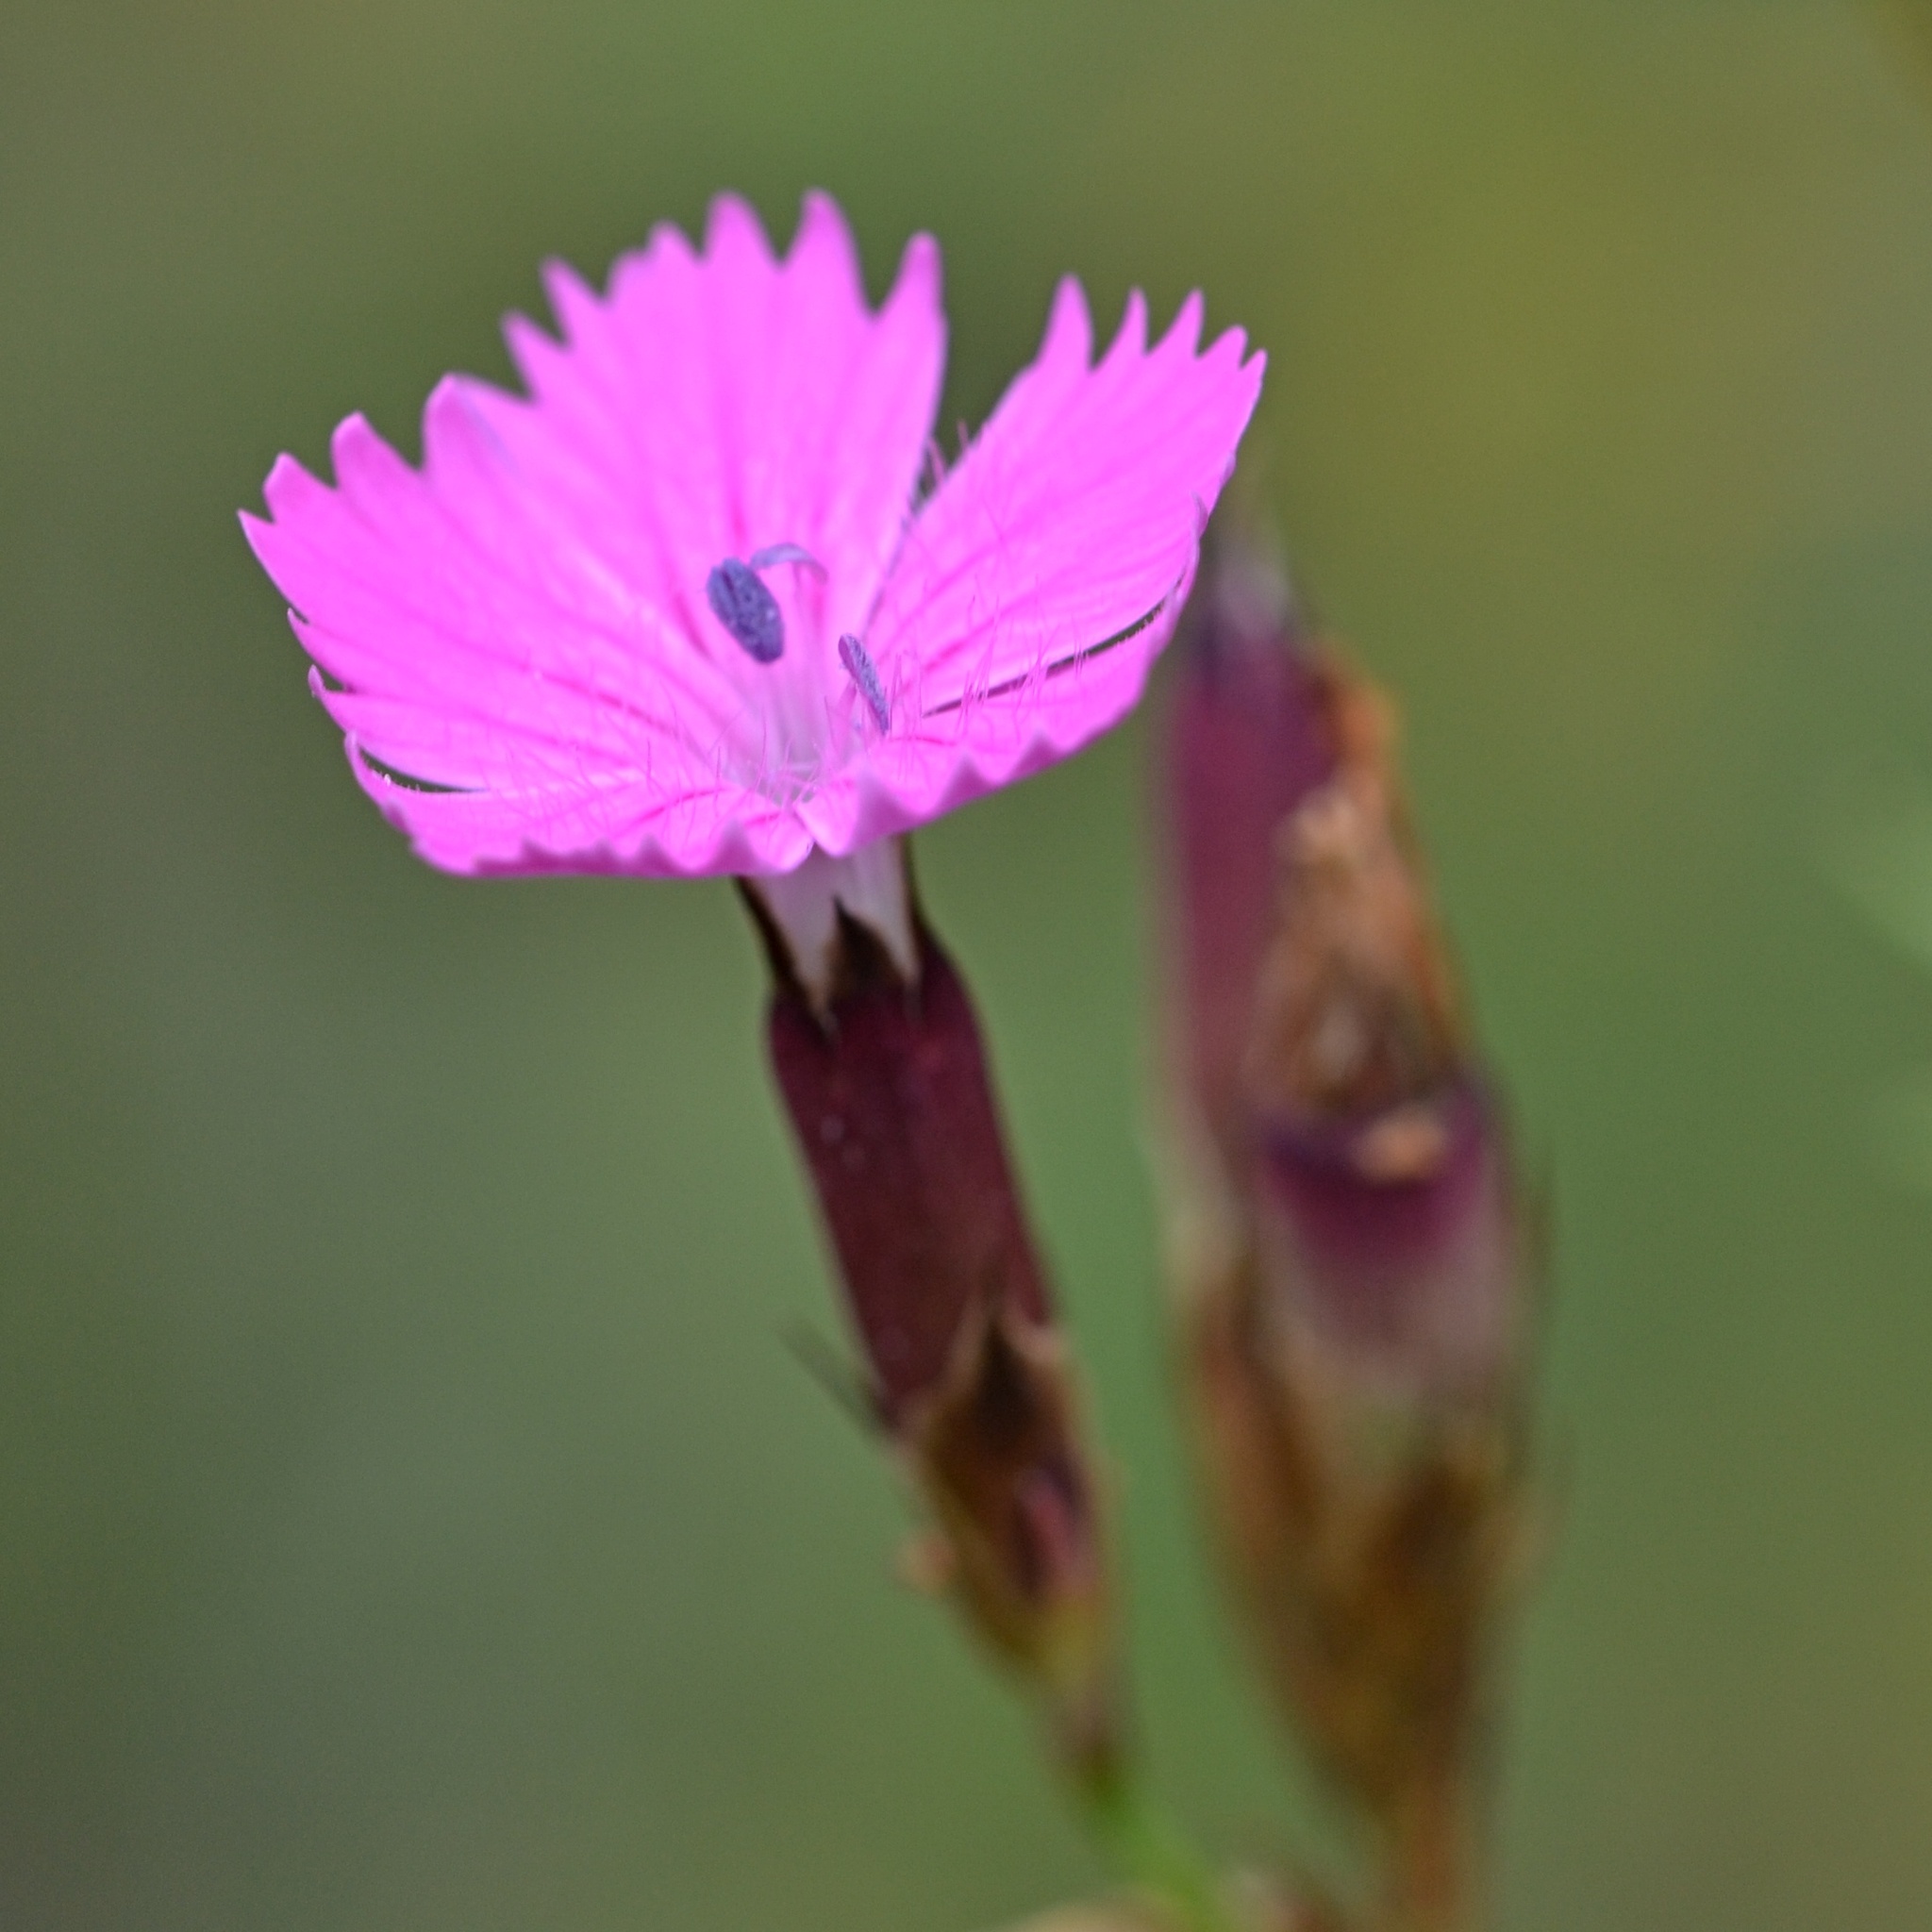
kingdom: Plantae
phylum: Tracheophyta
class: Magnoliopsida
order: Caryophyllales
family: Caryophyllaceae
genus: Dianthus
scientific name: Dianthus carthusianorum
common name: Carthusian pink
